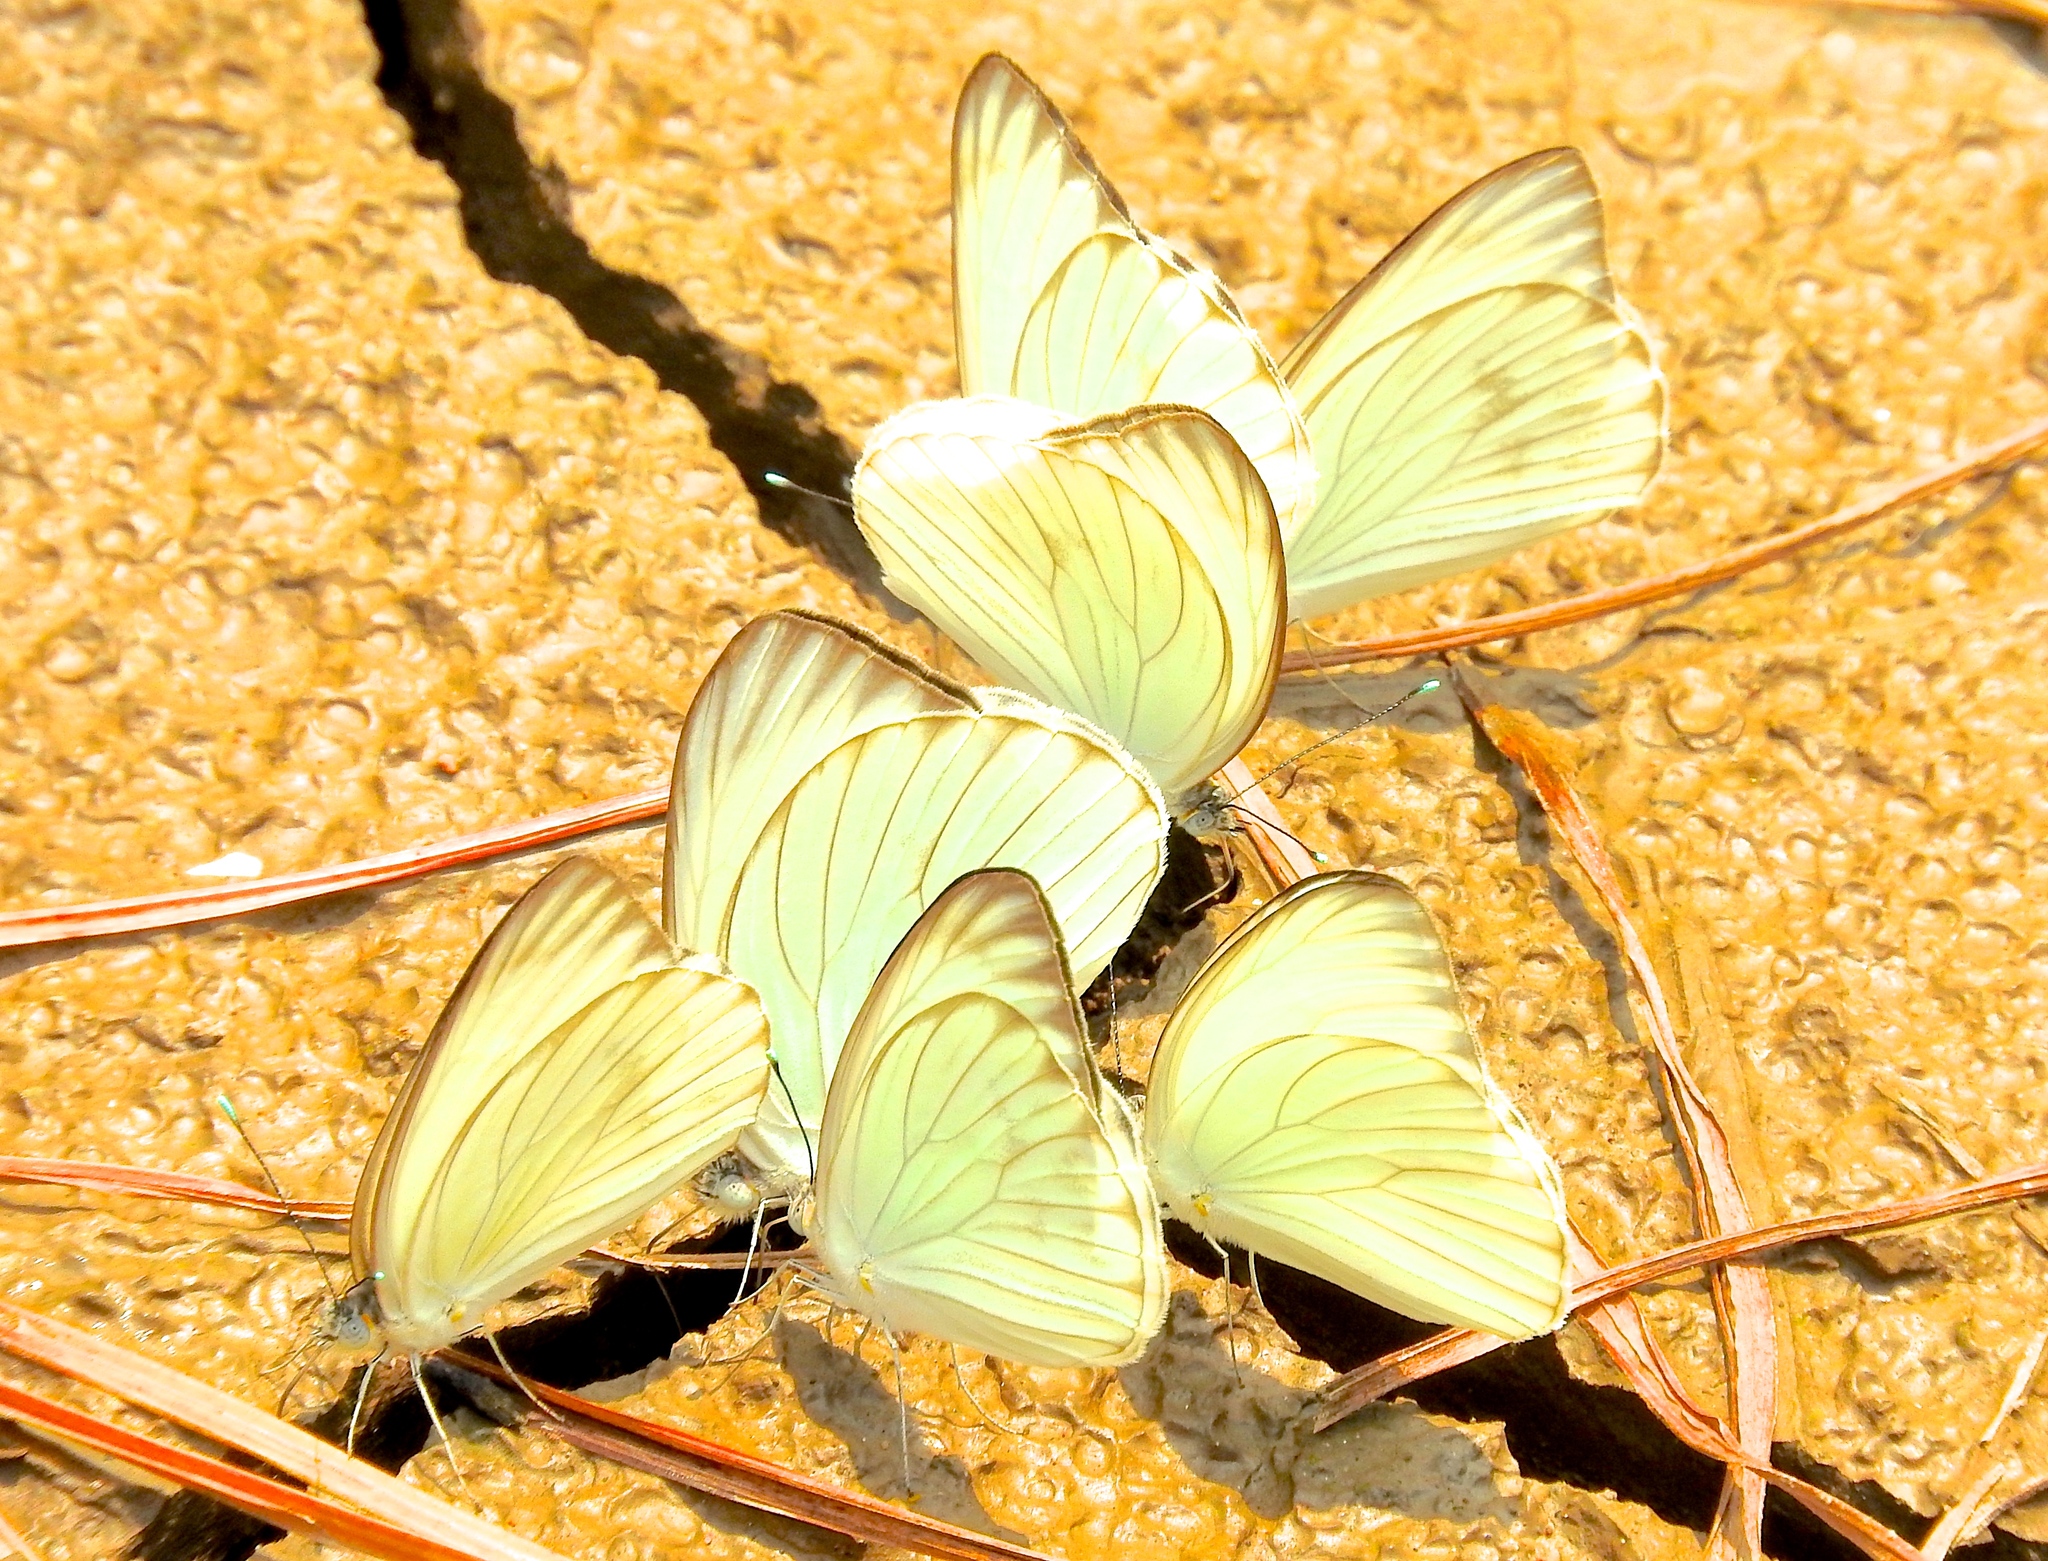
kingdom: Animalia
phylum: Arthropoda
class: Insecta
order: Lepidoptera
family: Pieridae
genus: Ascia
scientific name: Ascia monuste
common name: Great southern white
